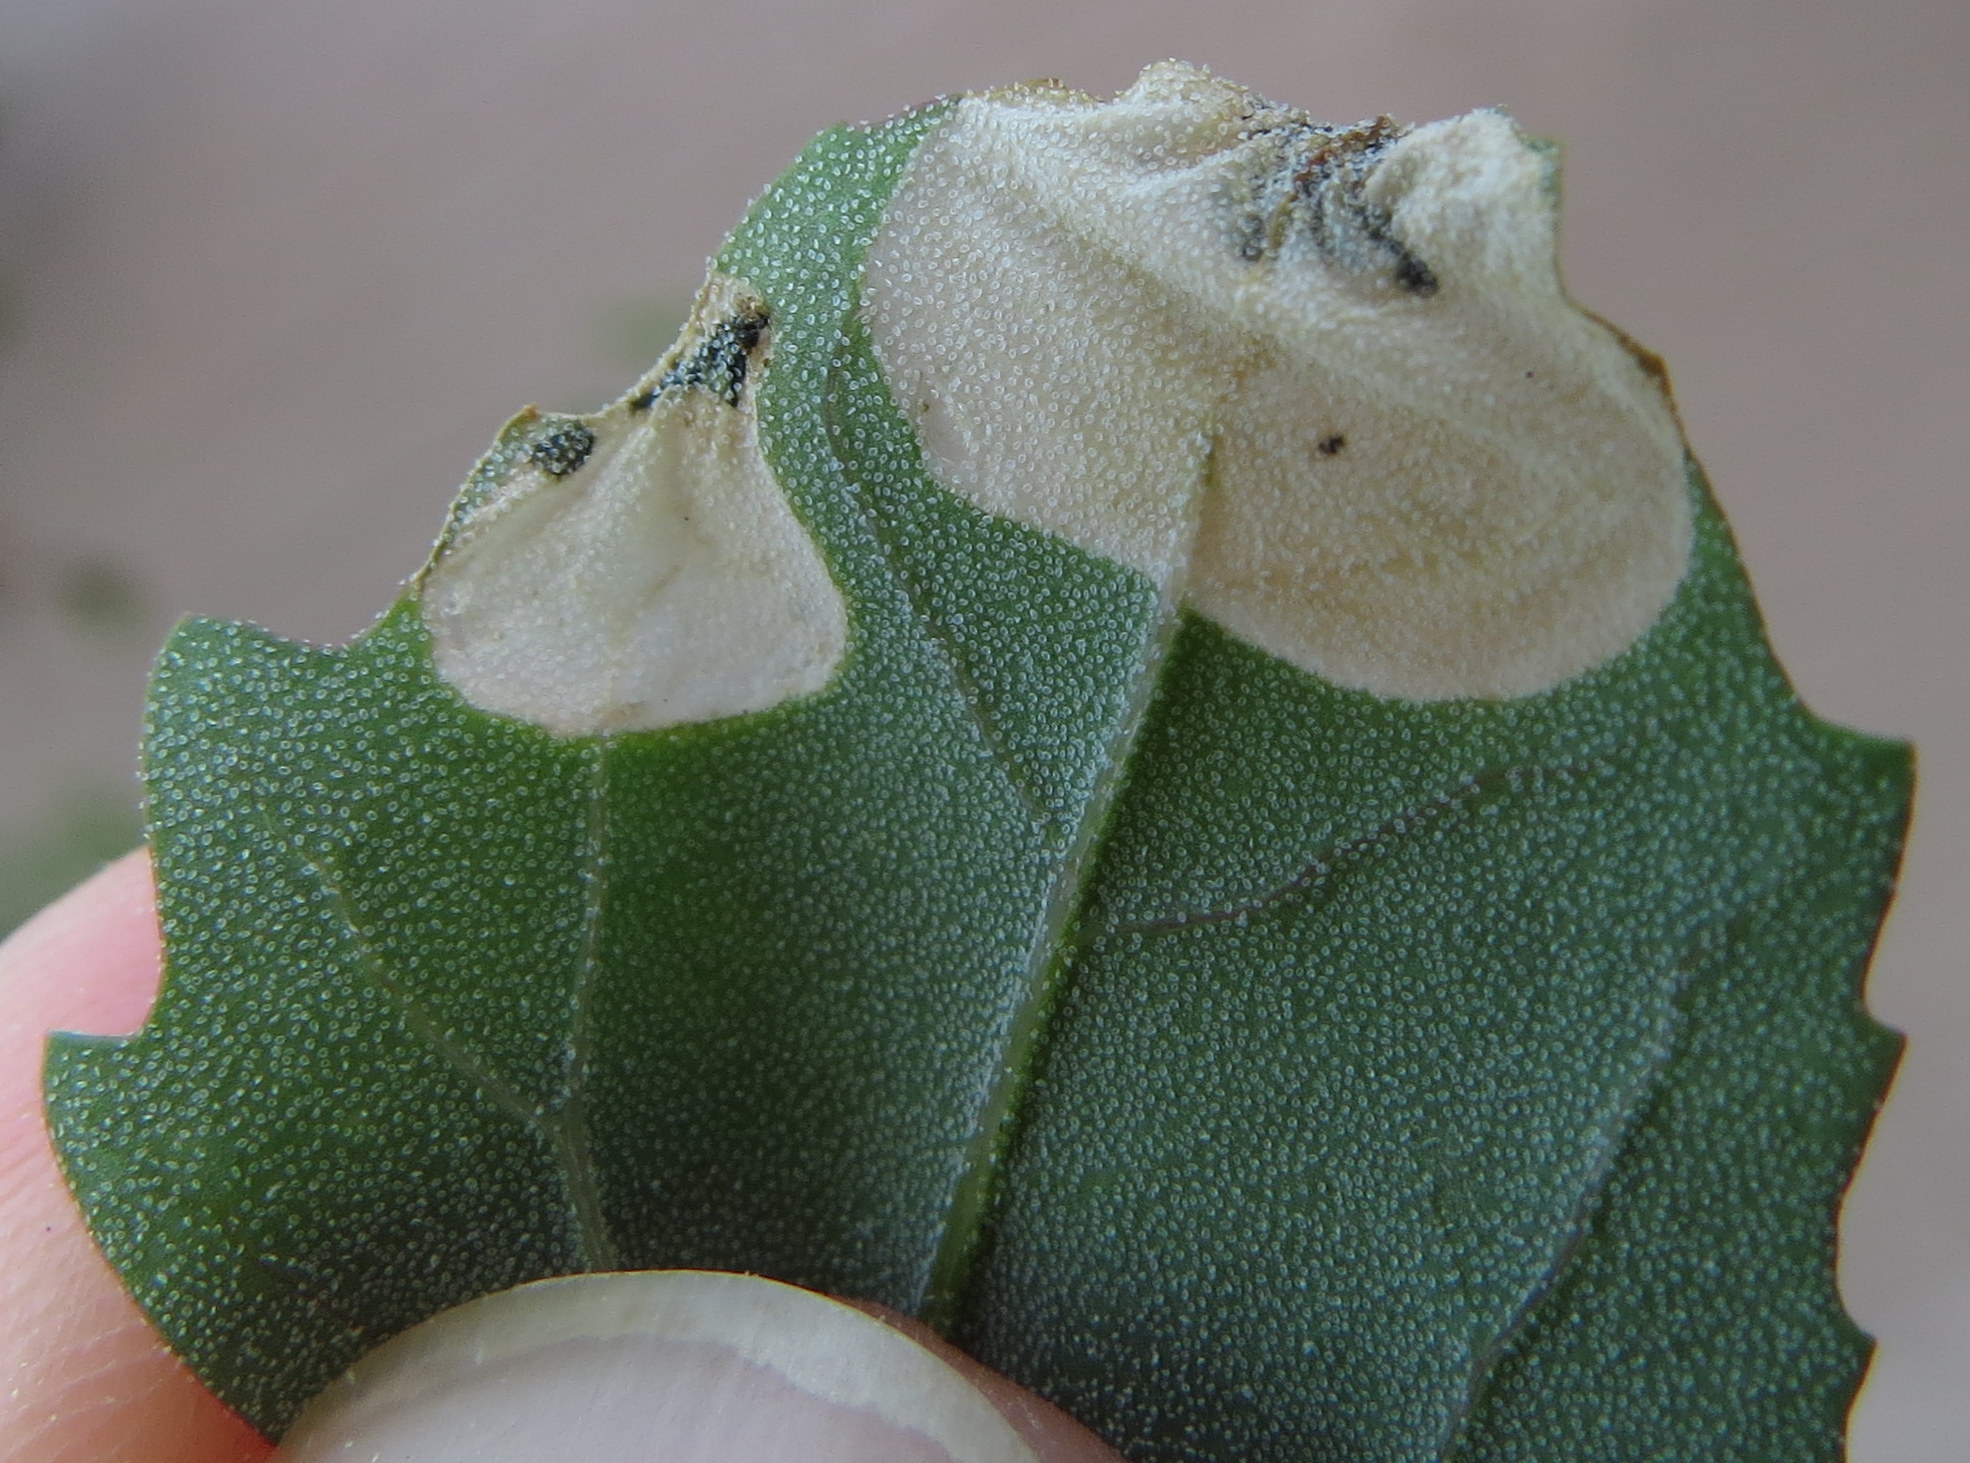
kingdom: Animalia
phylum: Arthropoda
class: Insecta
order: Lepidoptera
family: Gelechiidae
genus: Chrysoesthia
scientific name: Chrysoesthia sexguttella
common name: Moth
